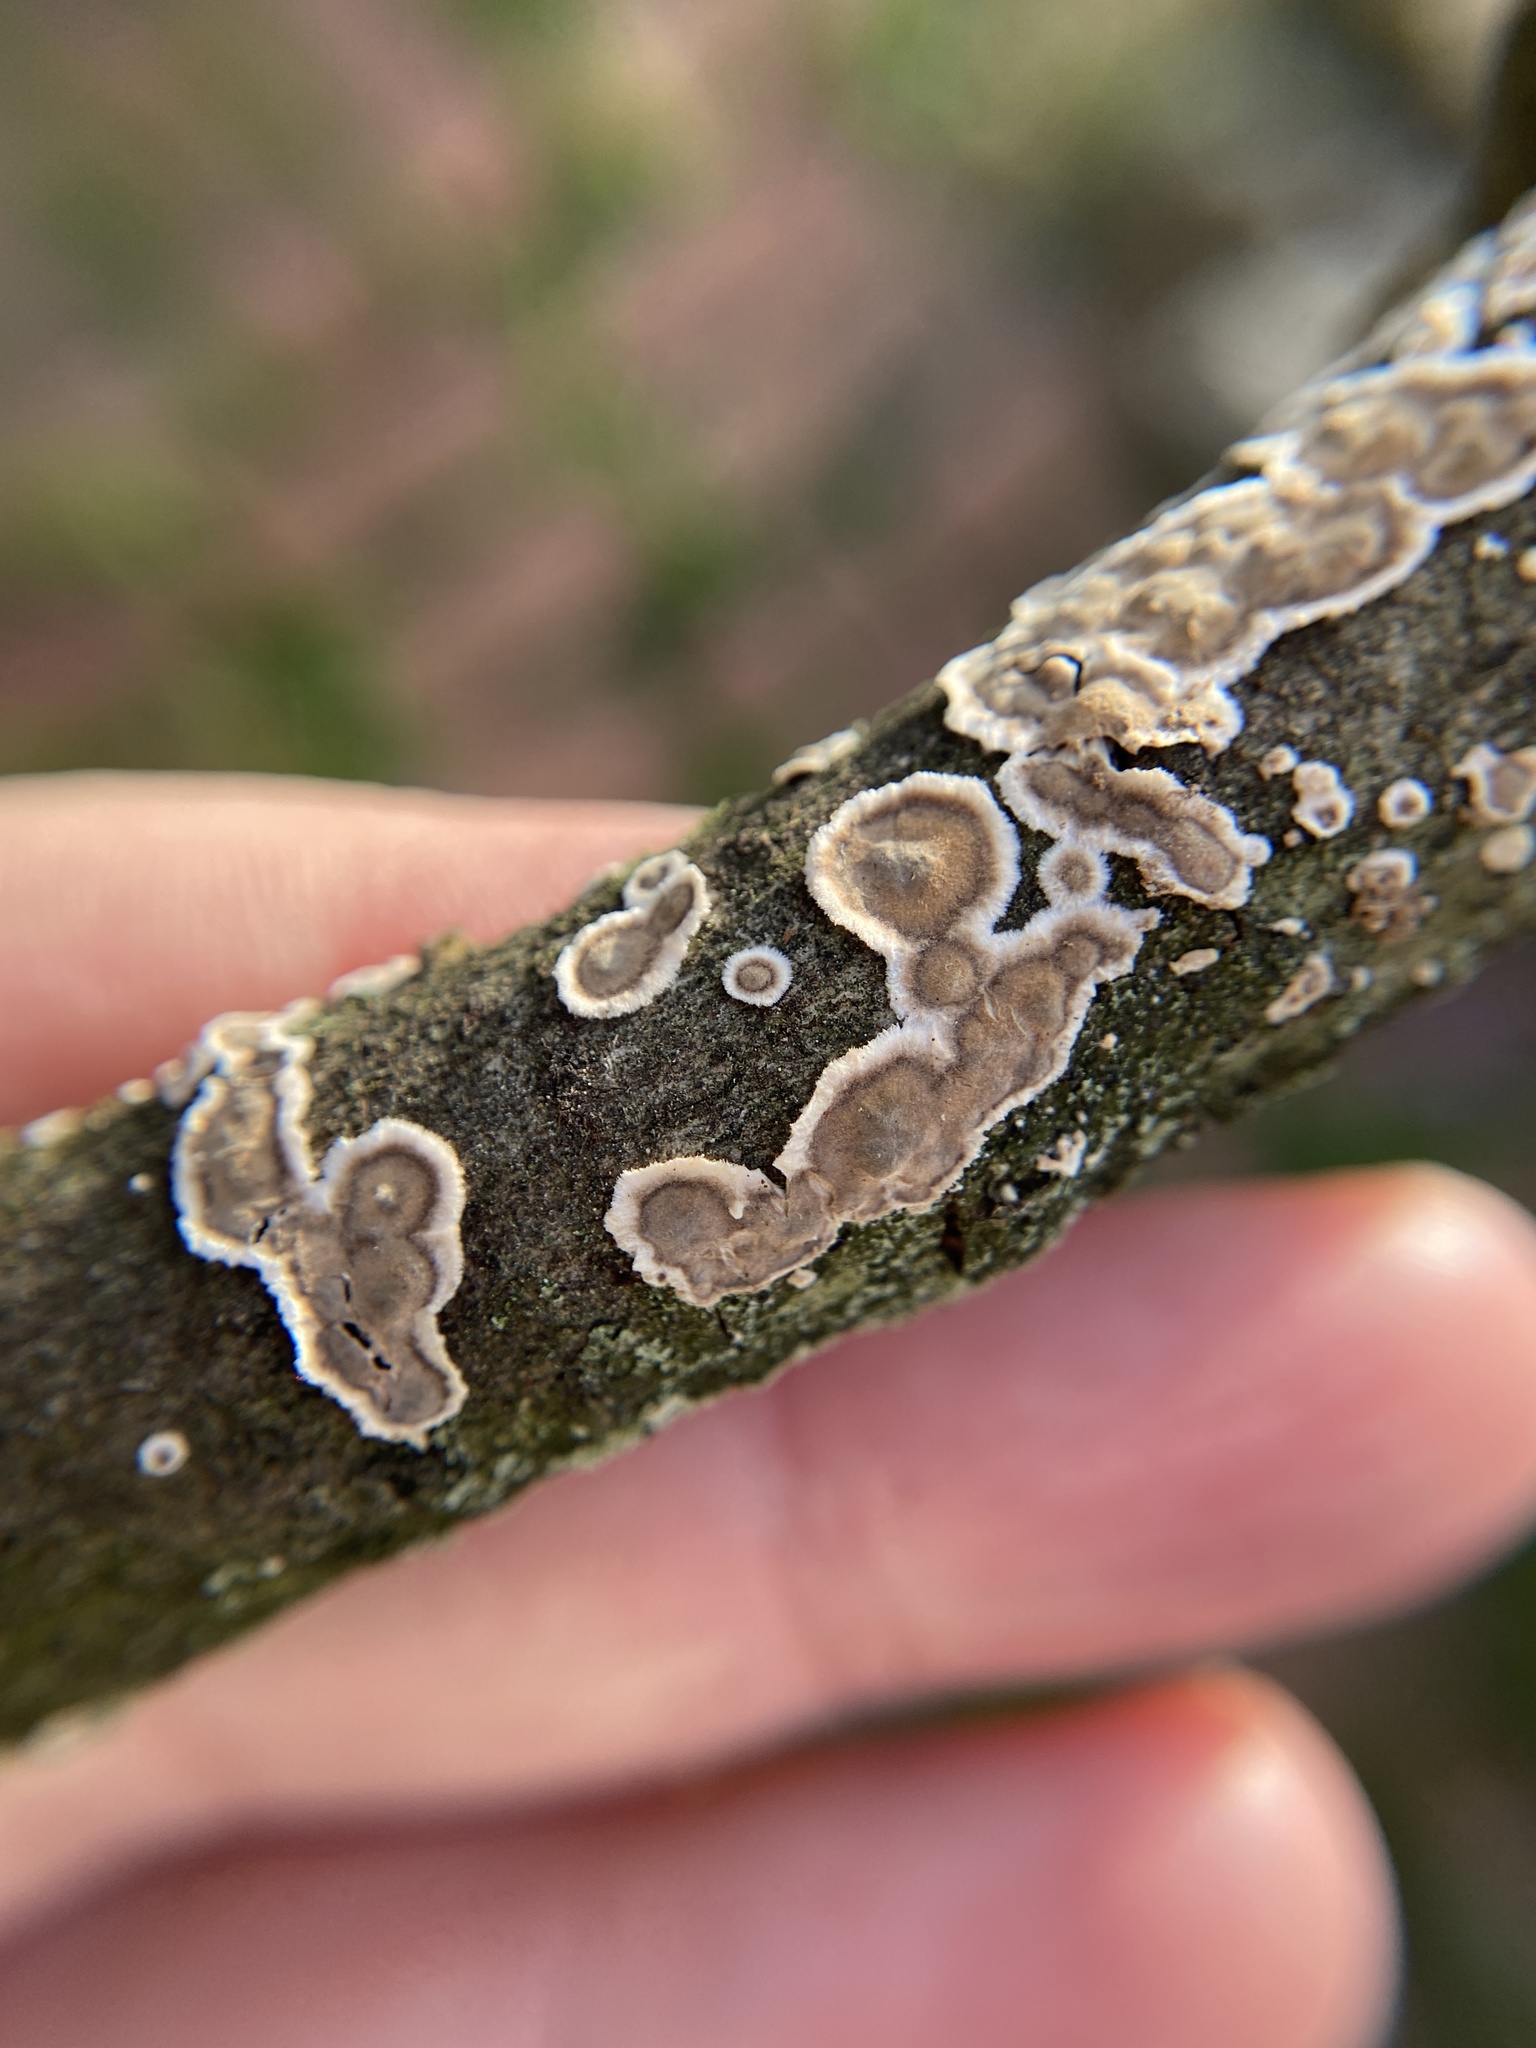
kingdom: Fungi
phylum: Basidiomycota
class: Agaricomycetes
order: Russulales
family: Peniophoraceae
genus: Peniophora
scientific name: Peniophora albobadia
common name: Giraffe spots
